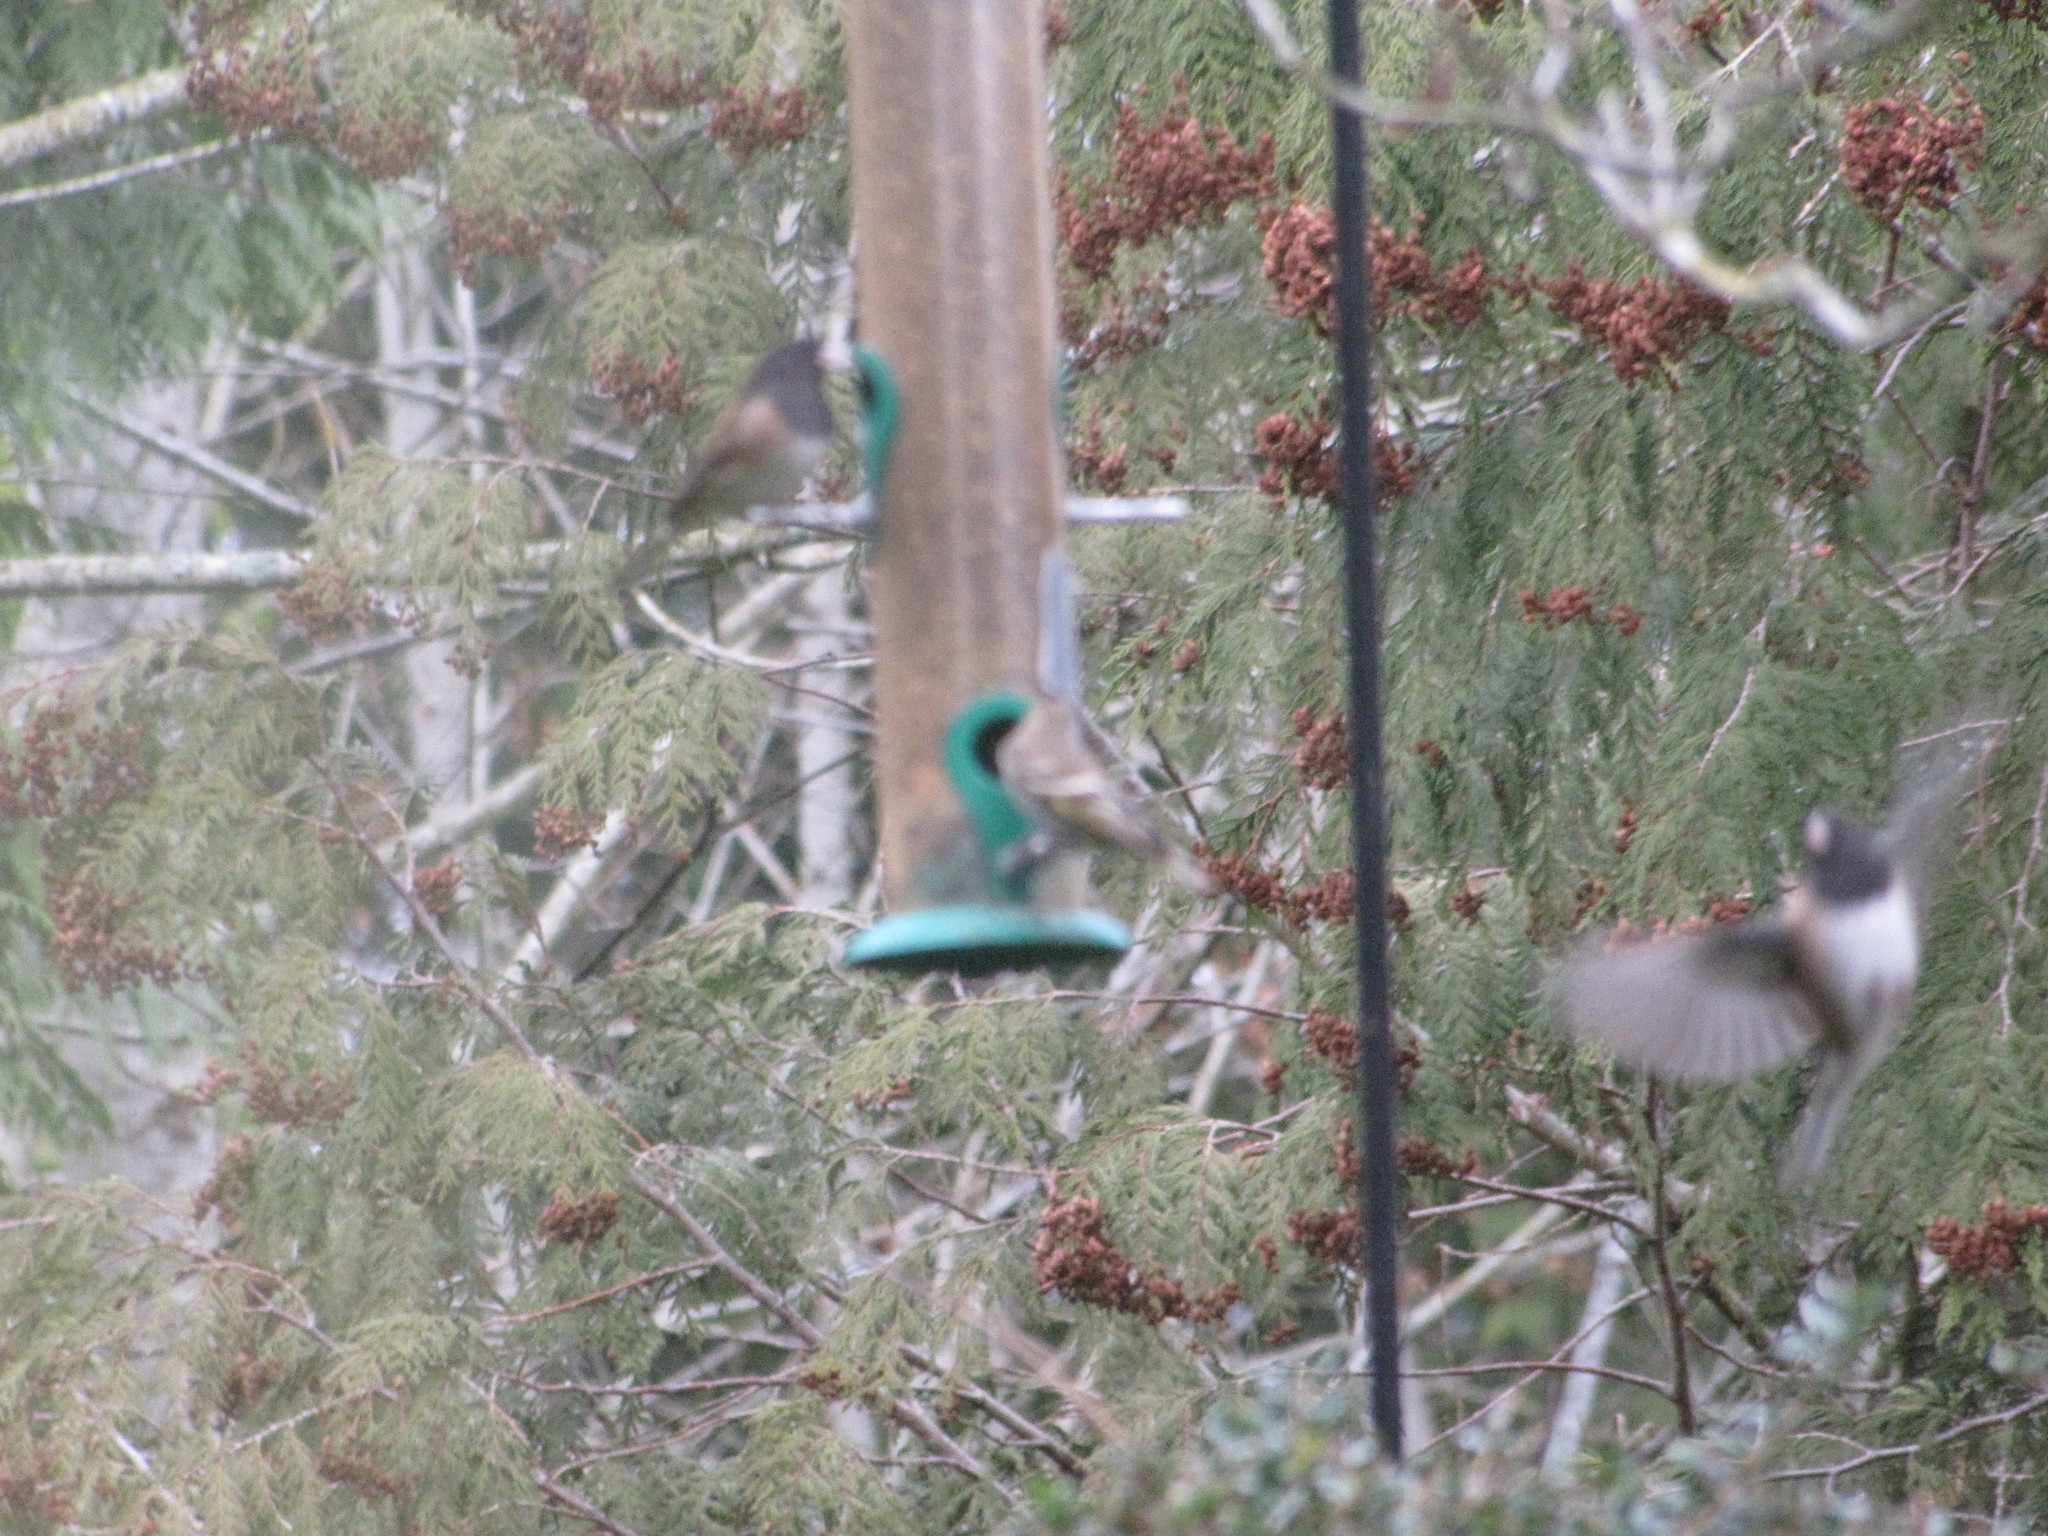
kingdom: Animalia
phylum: Chordata
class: Aves
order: Passeriformes
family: Passerellidae
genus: Junco
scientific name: Junco hyemalis
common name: Dark-eyed junco
